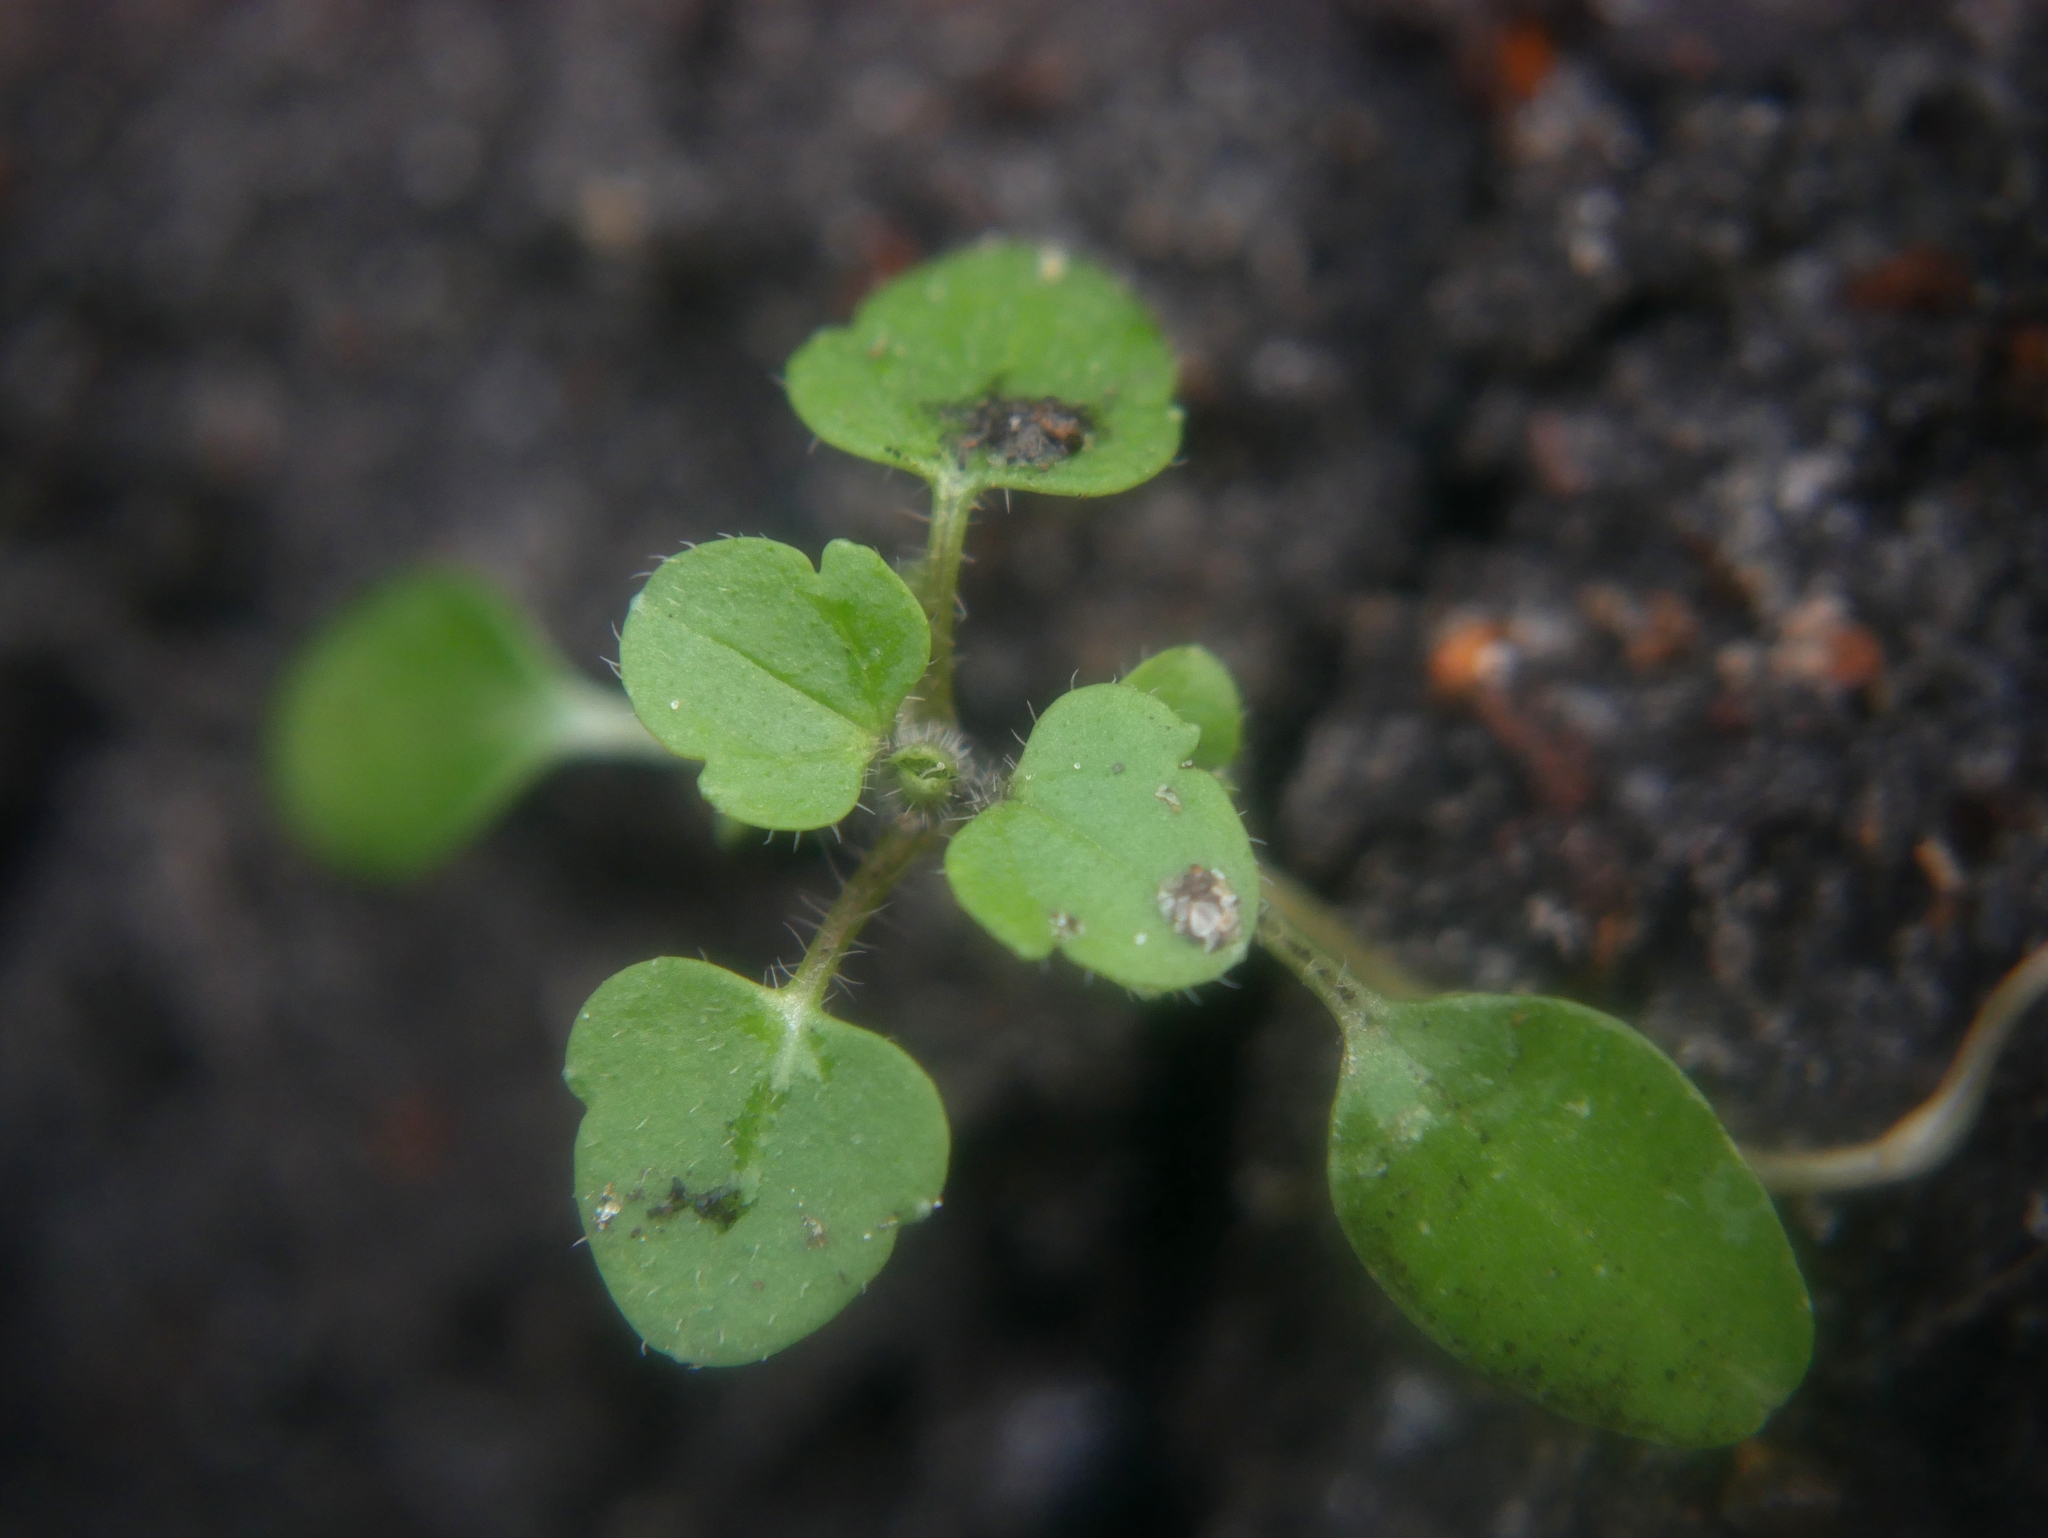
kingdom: Plantae
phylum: Tracheophyta
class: Magnoliopsida
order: Lamiales
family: Plantaginaceae
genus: Veronica
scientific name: Veronica
